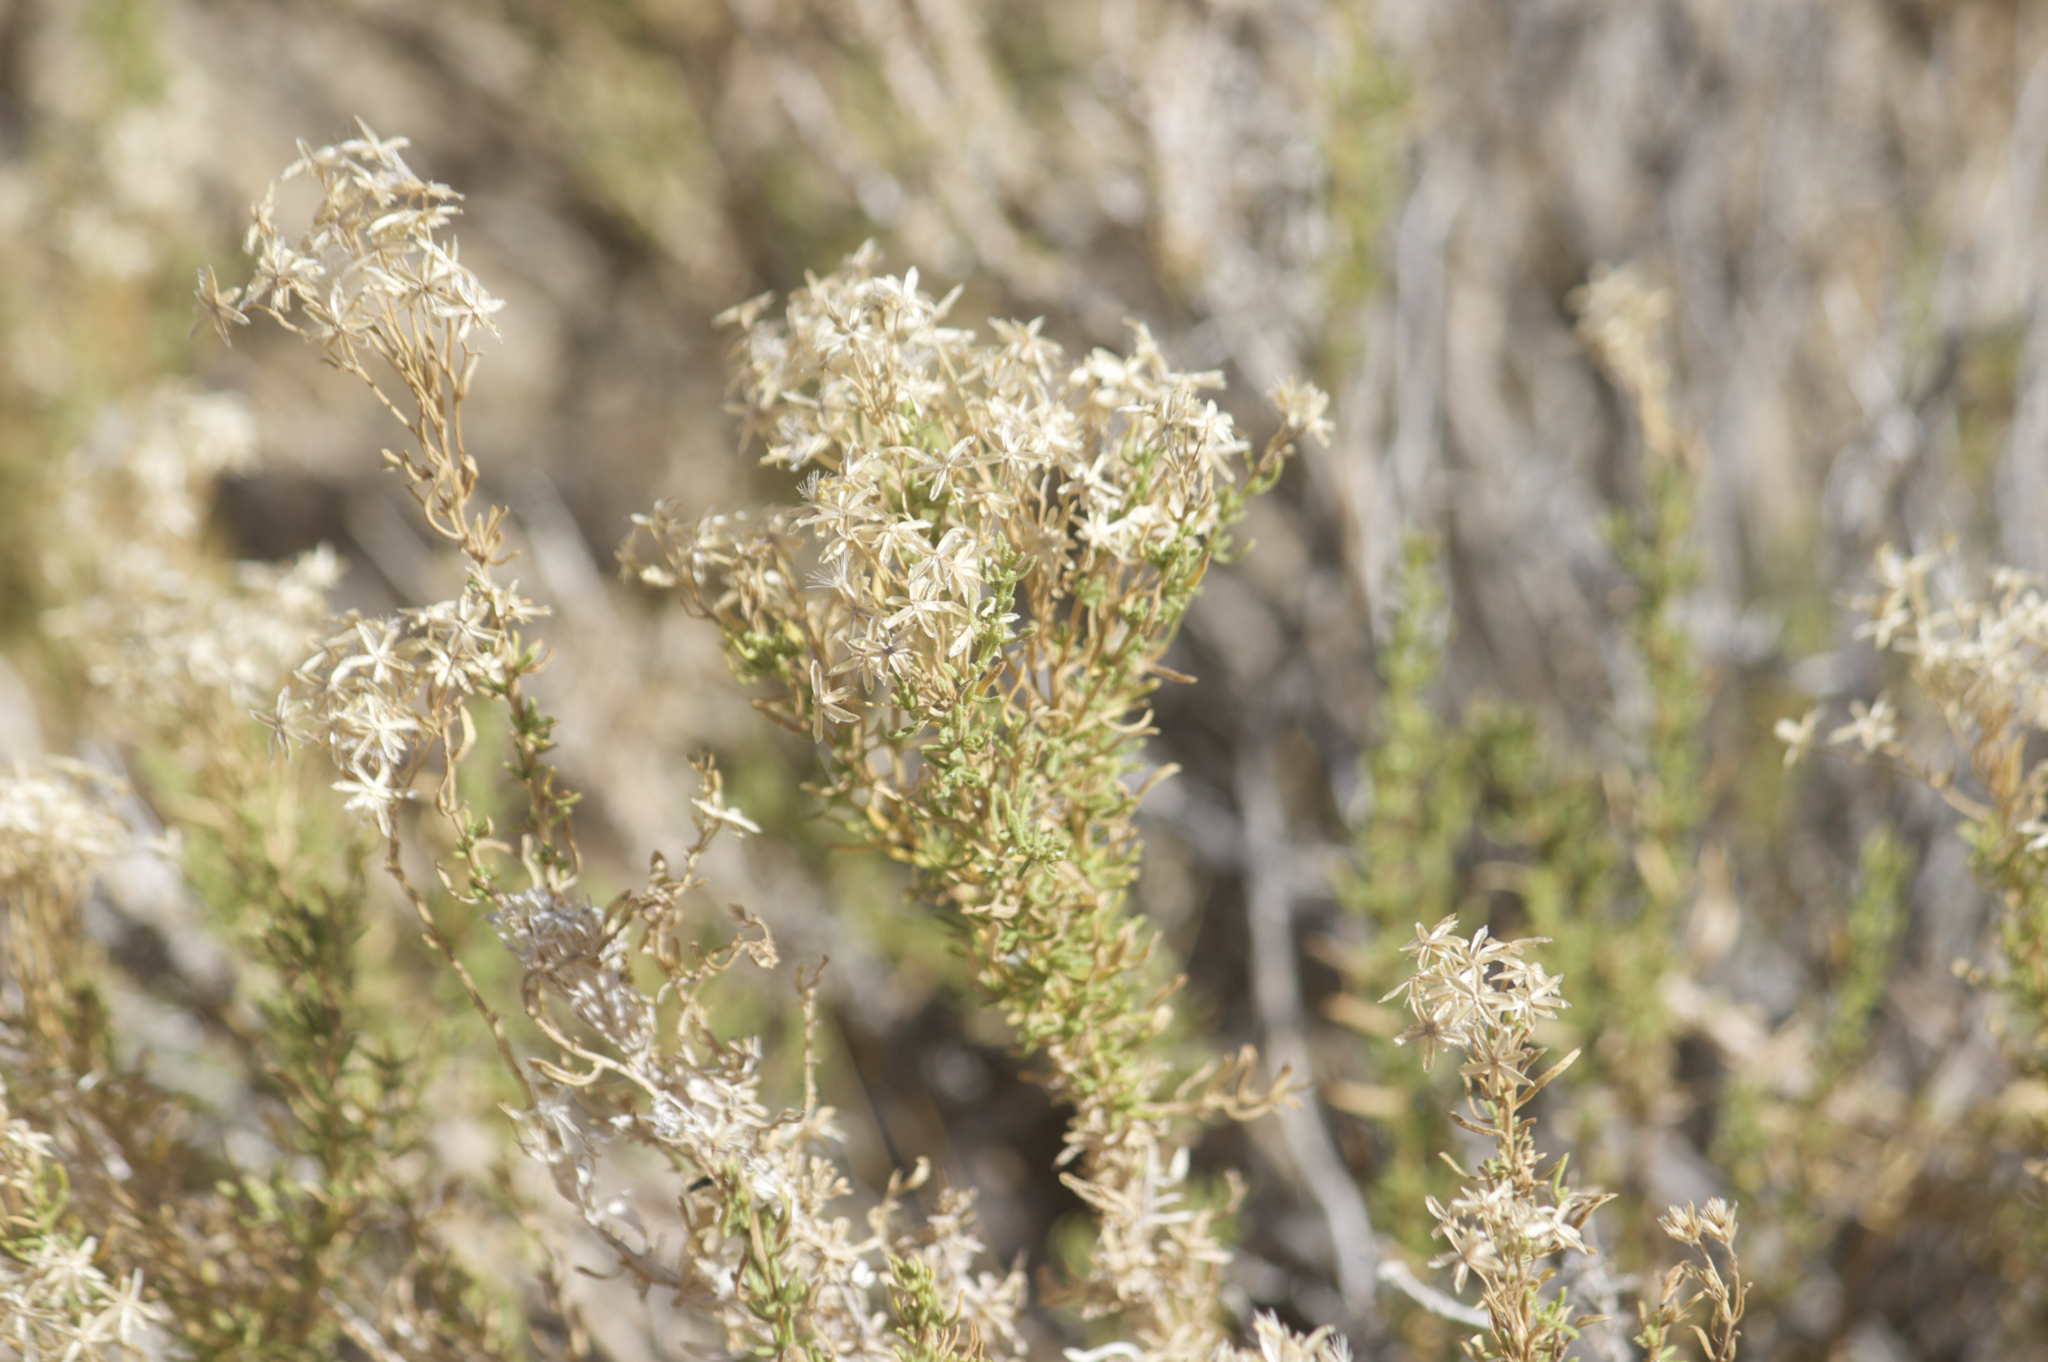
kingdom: Plantae
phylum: Tracheophyta
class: Magnoliopsida
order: Asterales
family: Asteraceae
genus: Ericameria
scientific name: Ericameria cooperi
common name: Cooper's goldenbush
